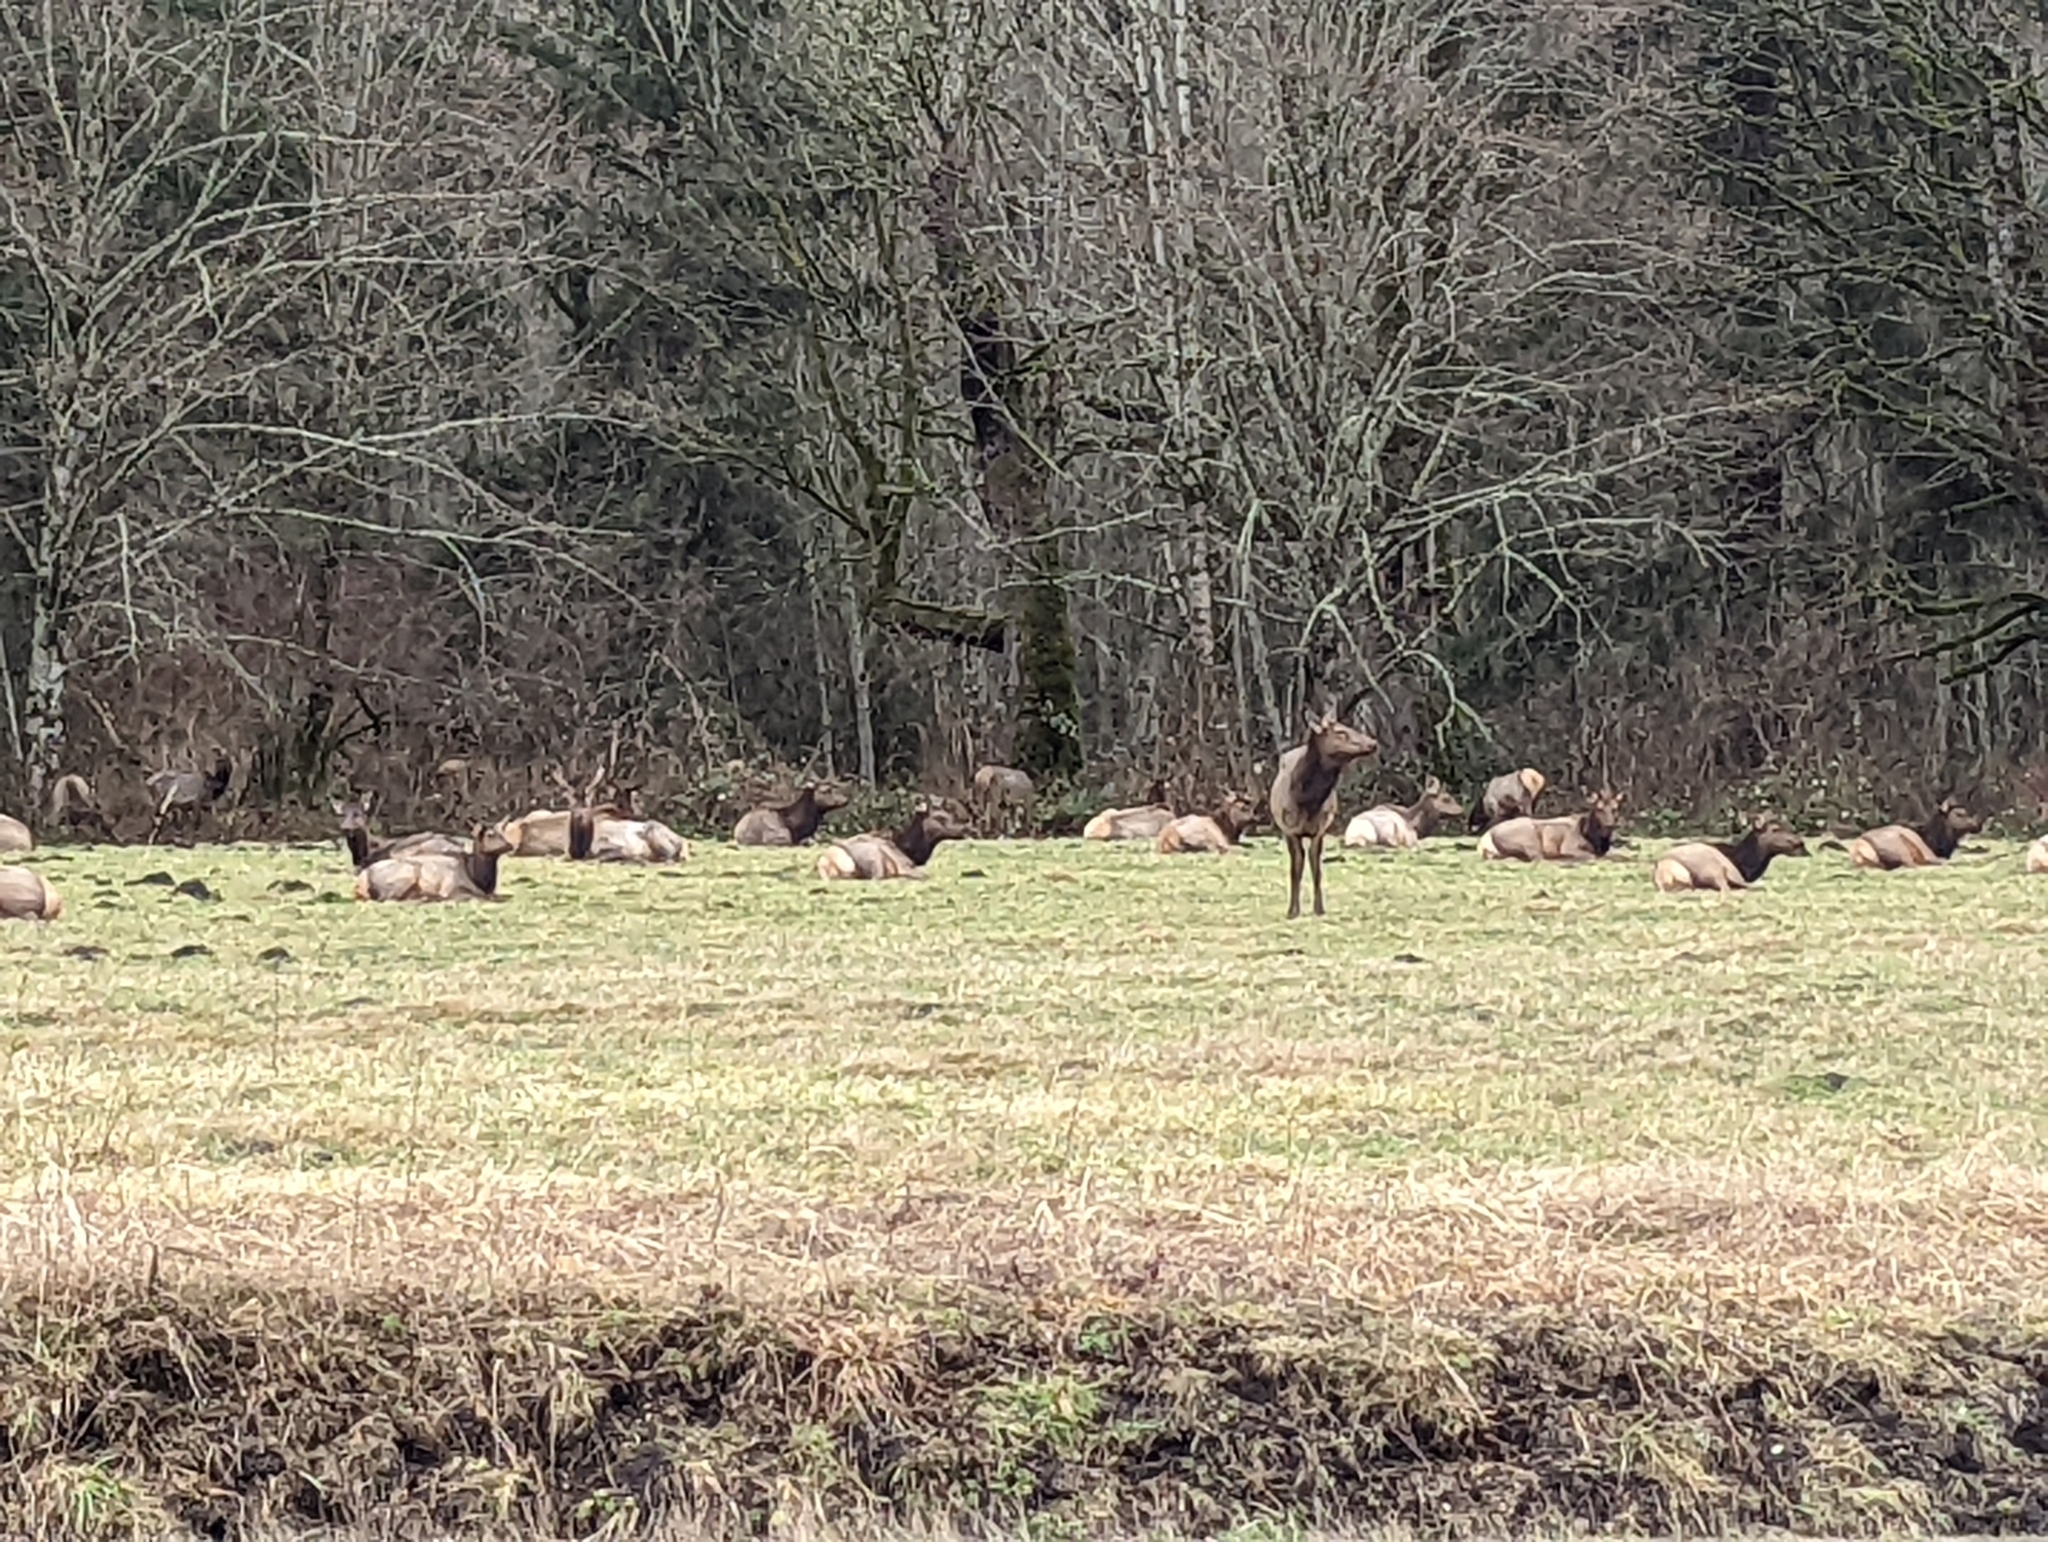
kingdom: Animalia
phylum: Chordata
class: Mammalia
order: Artiodactyla
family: Cervidae
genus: Cervus
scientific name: Cervus elaphus
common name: Red deer
